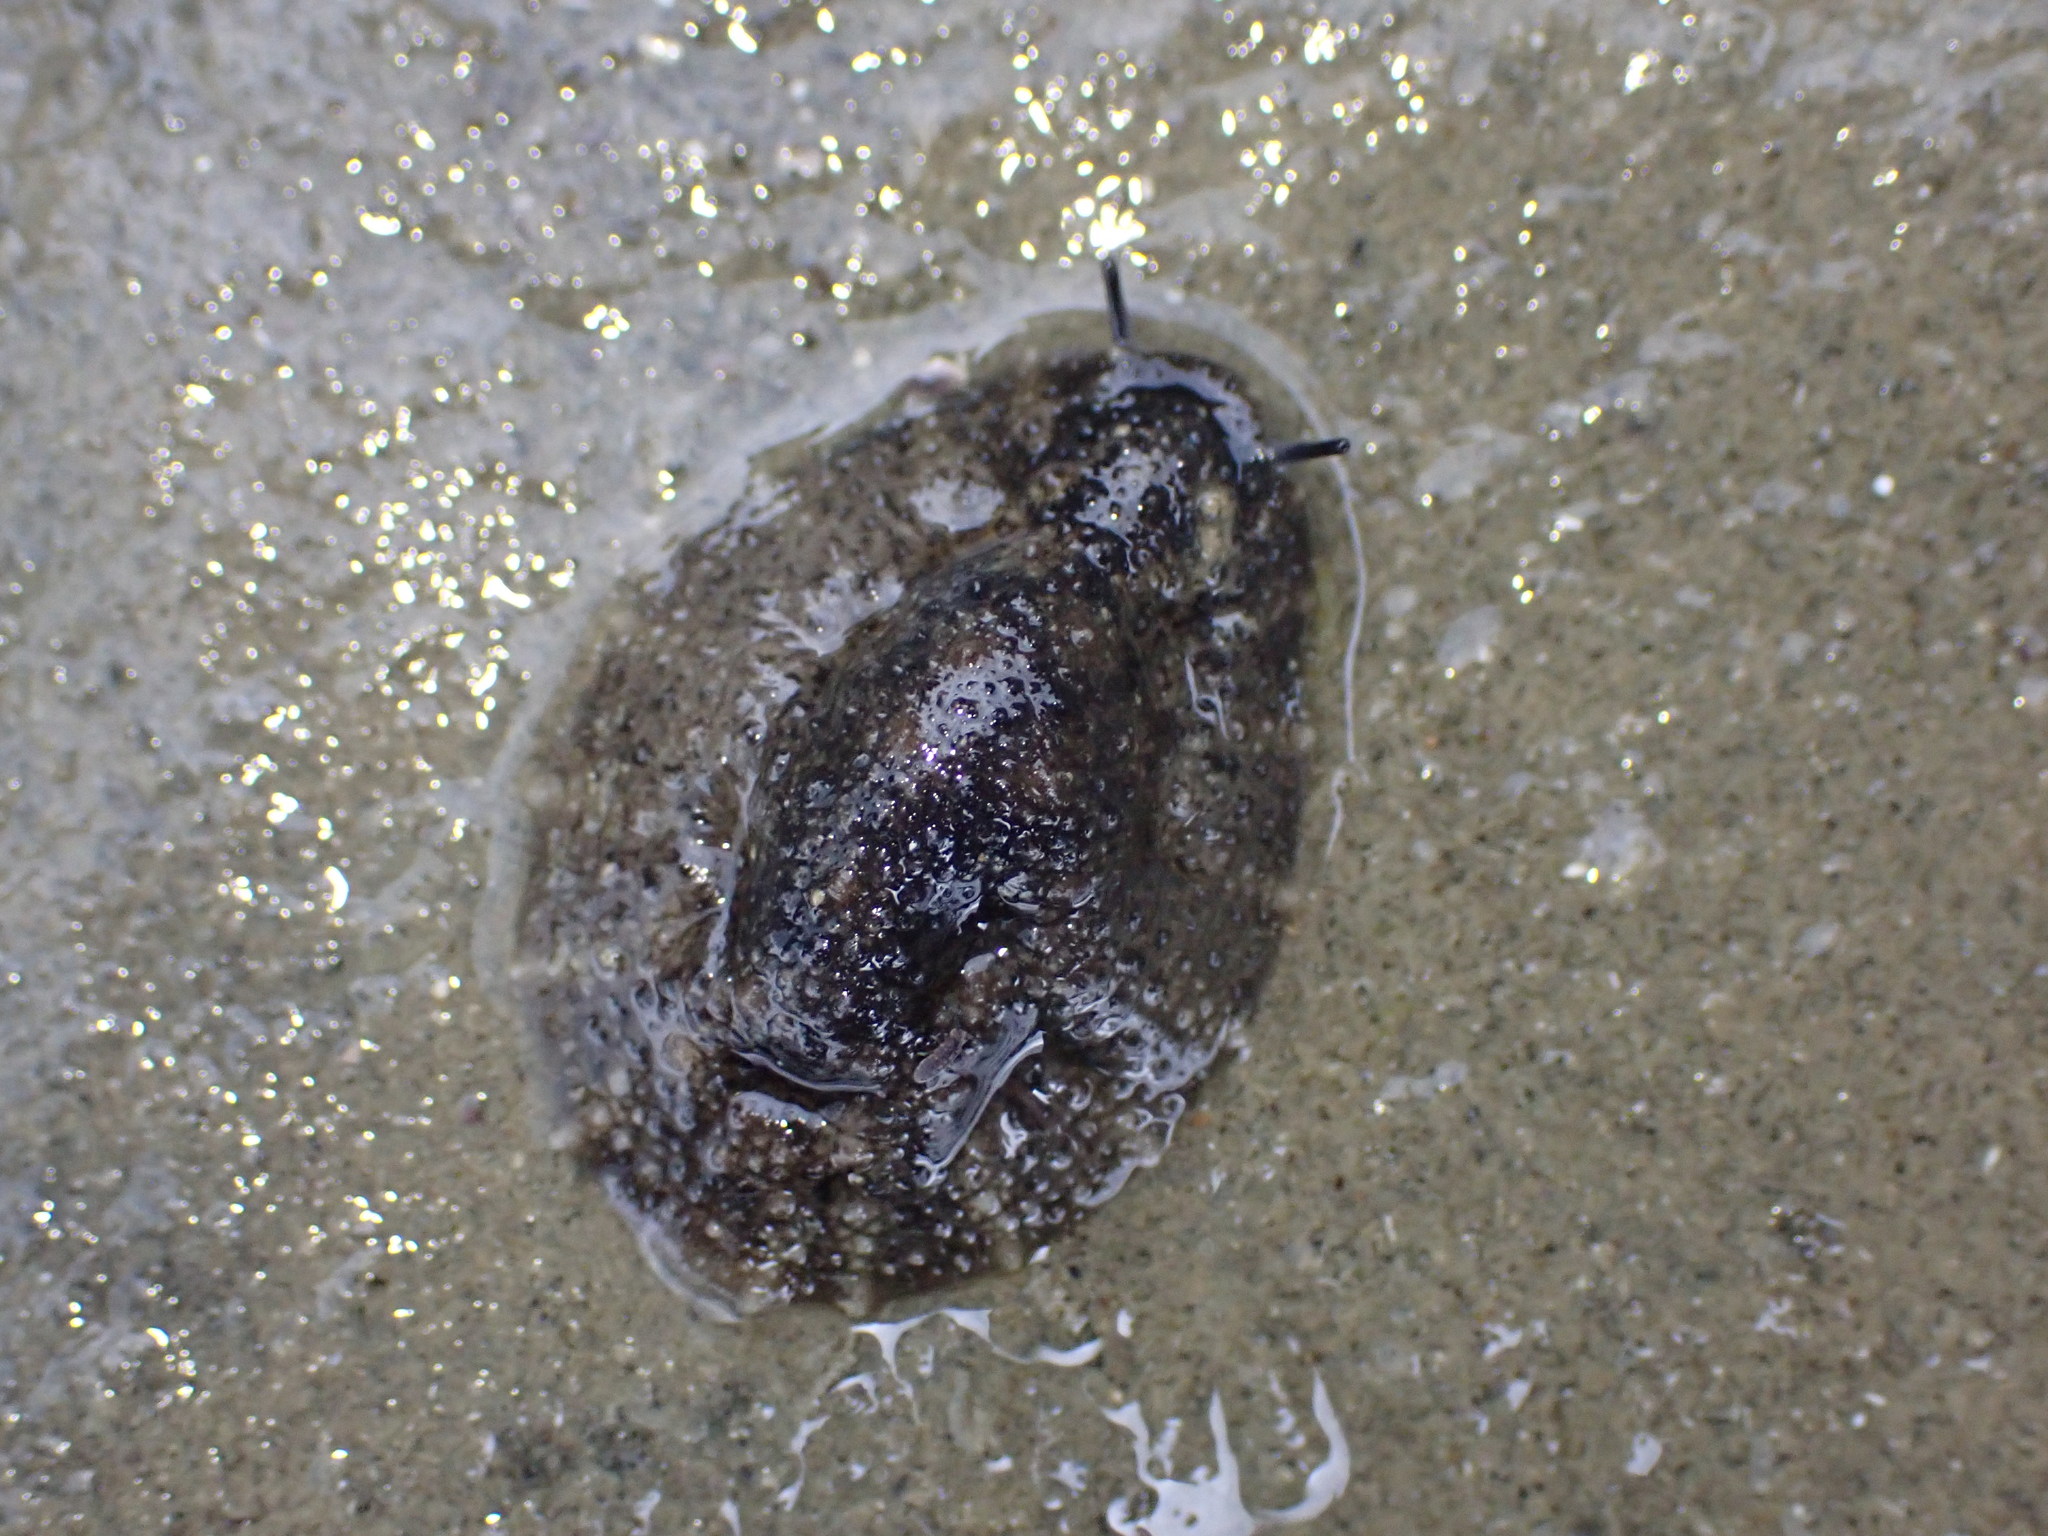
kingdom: Animalia
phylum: Mollusca
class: Gastropoda
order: Systellommatophora
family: Onchidiidae
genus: Onchidella
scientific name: Onchidella nigricans
